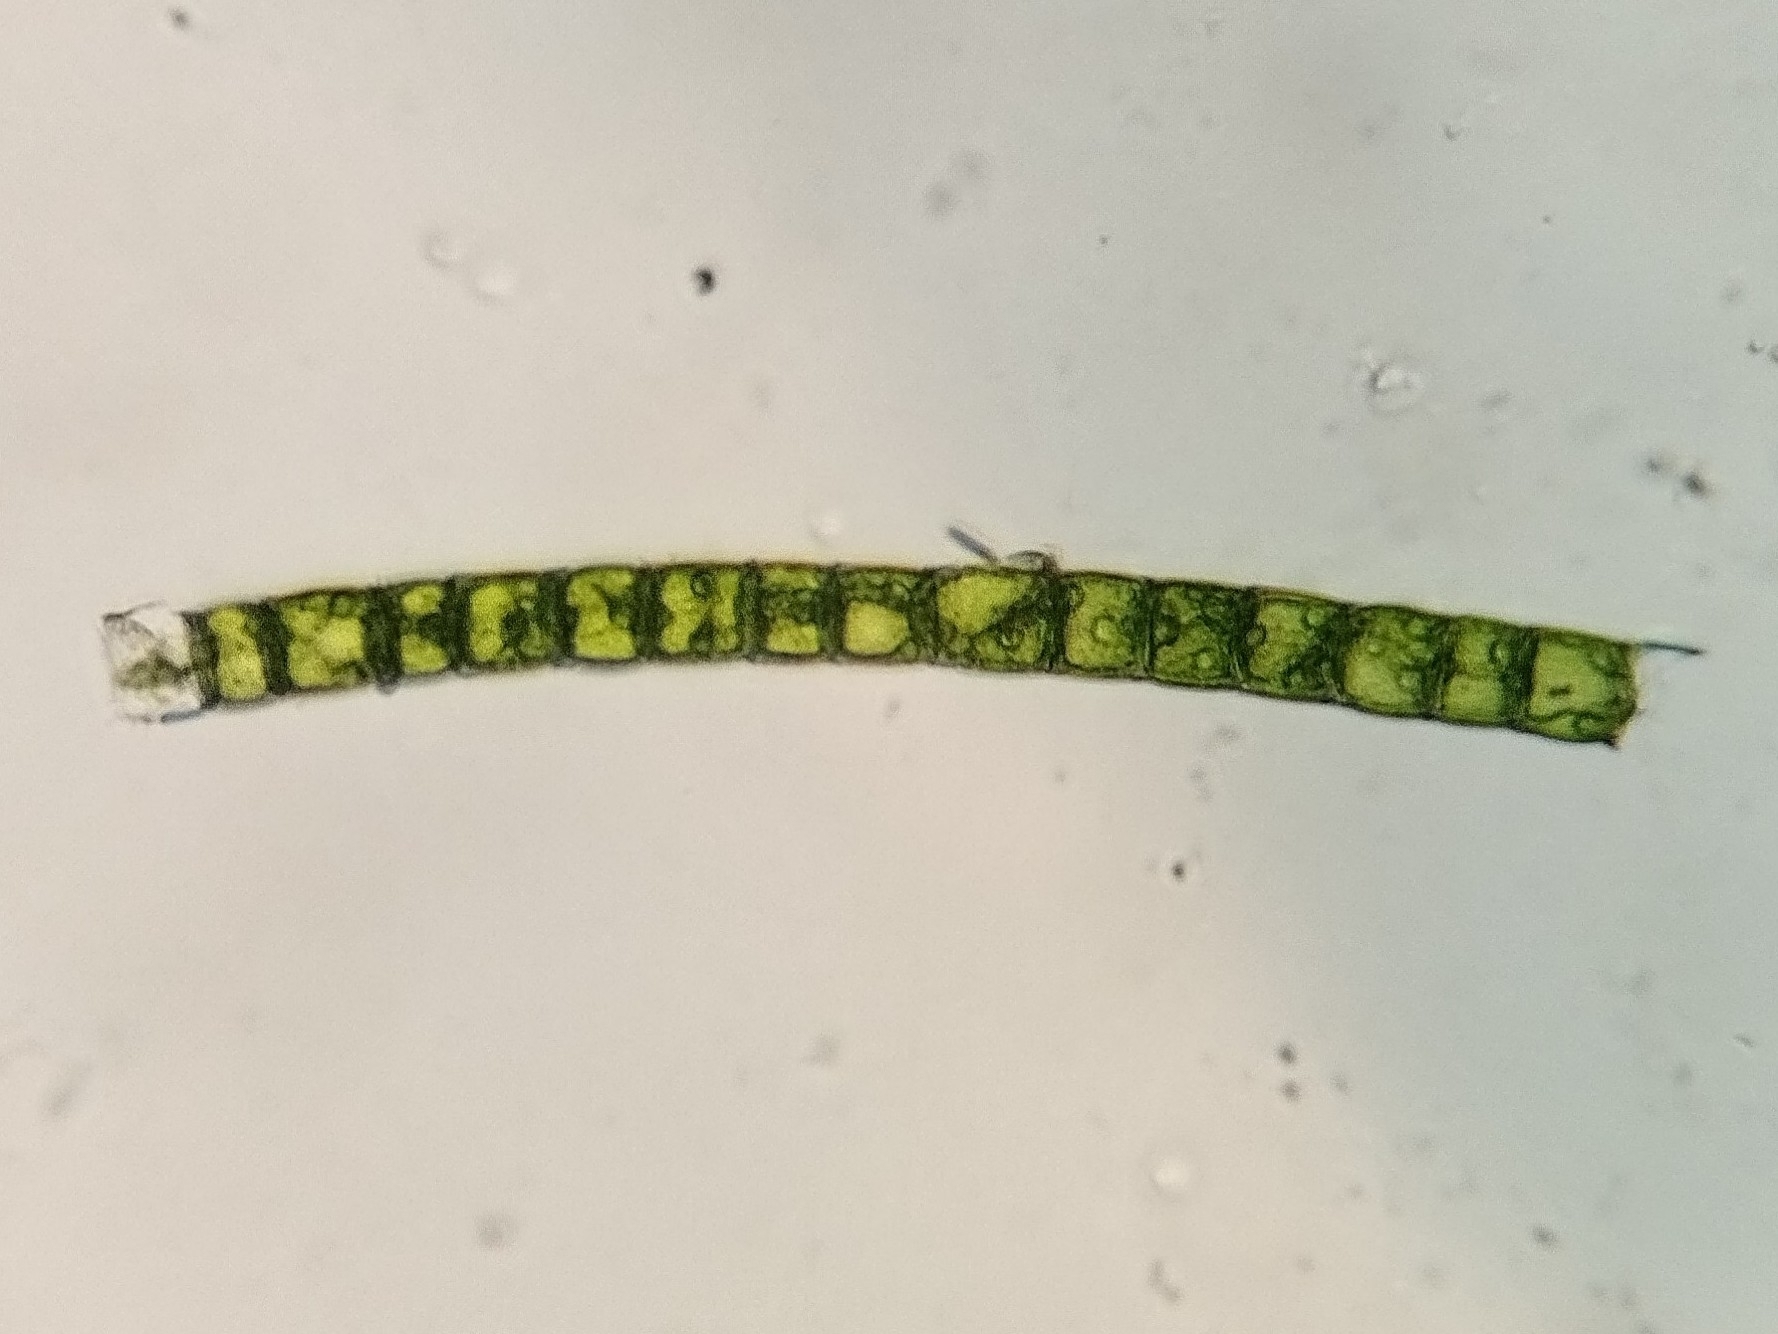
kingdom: Plantae
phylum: Chlorophyta
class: Chlorophyceae
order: Oedogoniales
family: Oedogoniaceae
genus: Oedogonium
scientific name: Oedogonium
